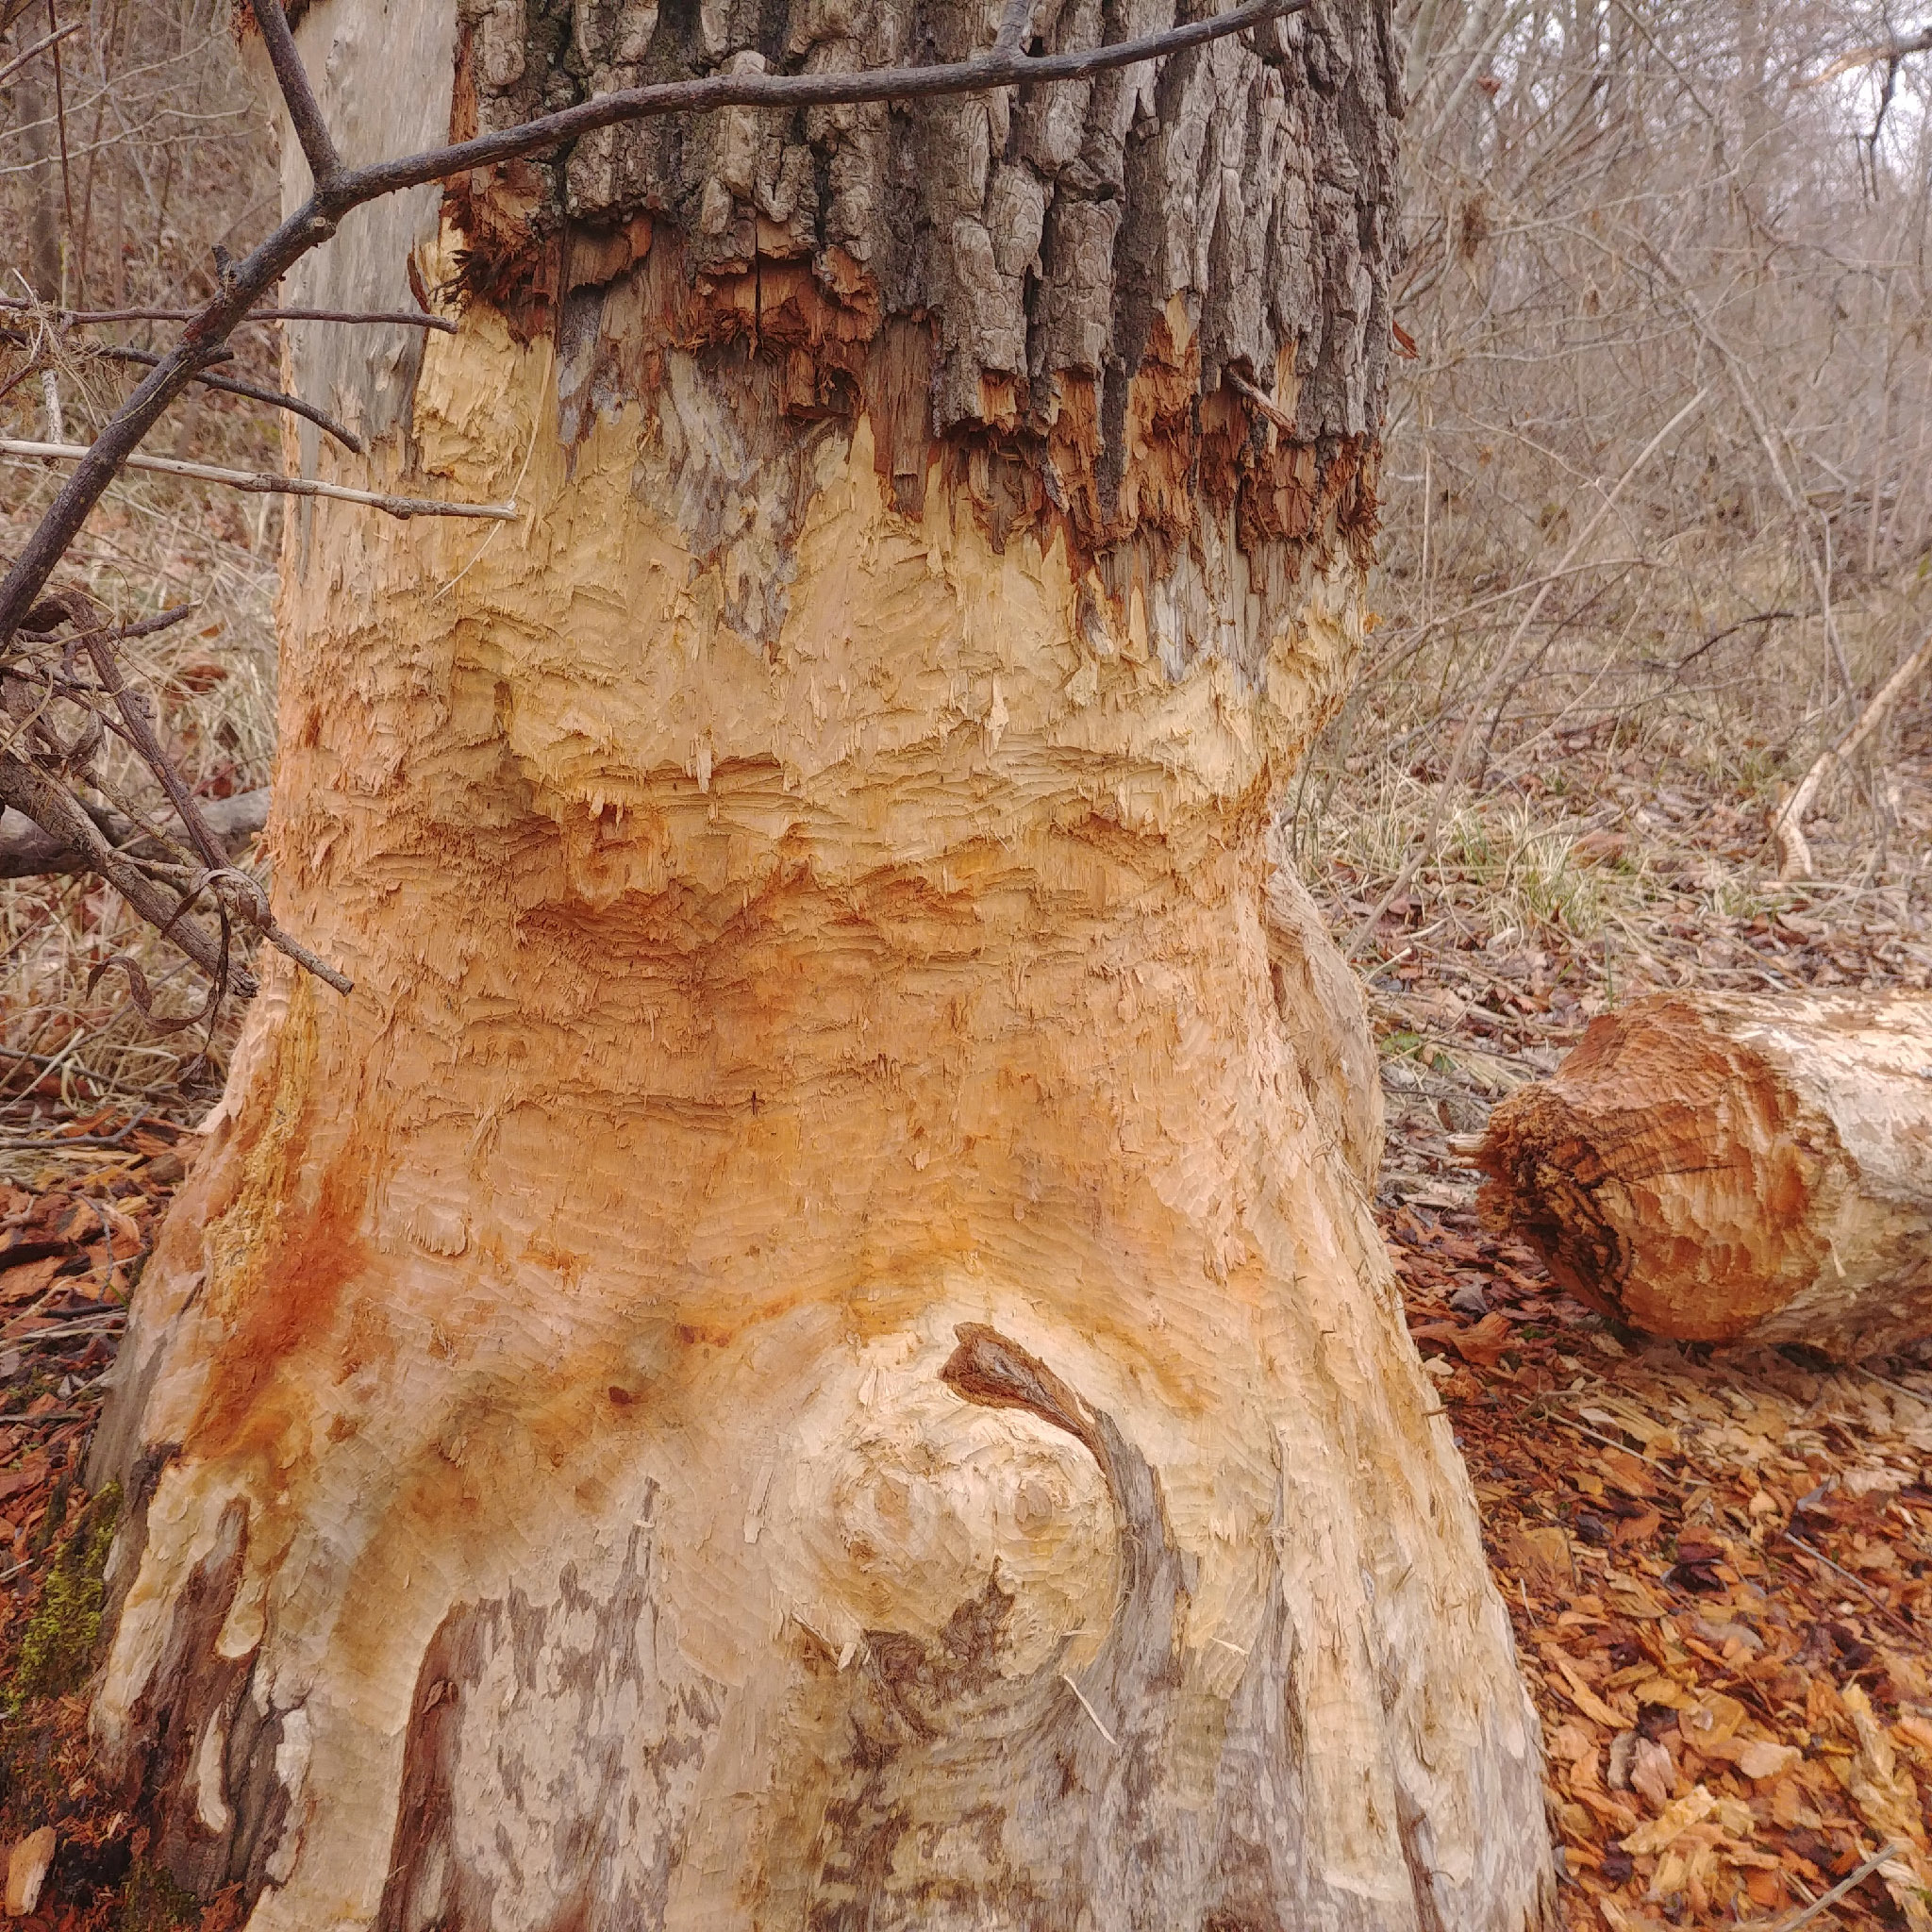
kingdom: Animalia
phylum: Chordata
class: Mammalia
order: Rodentia
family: Castoridae
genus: Castor
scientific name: Castor fiber
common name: Eurasian beaver
